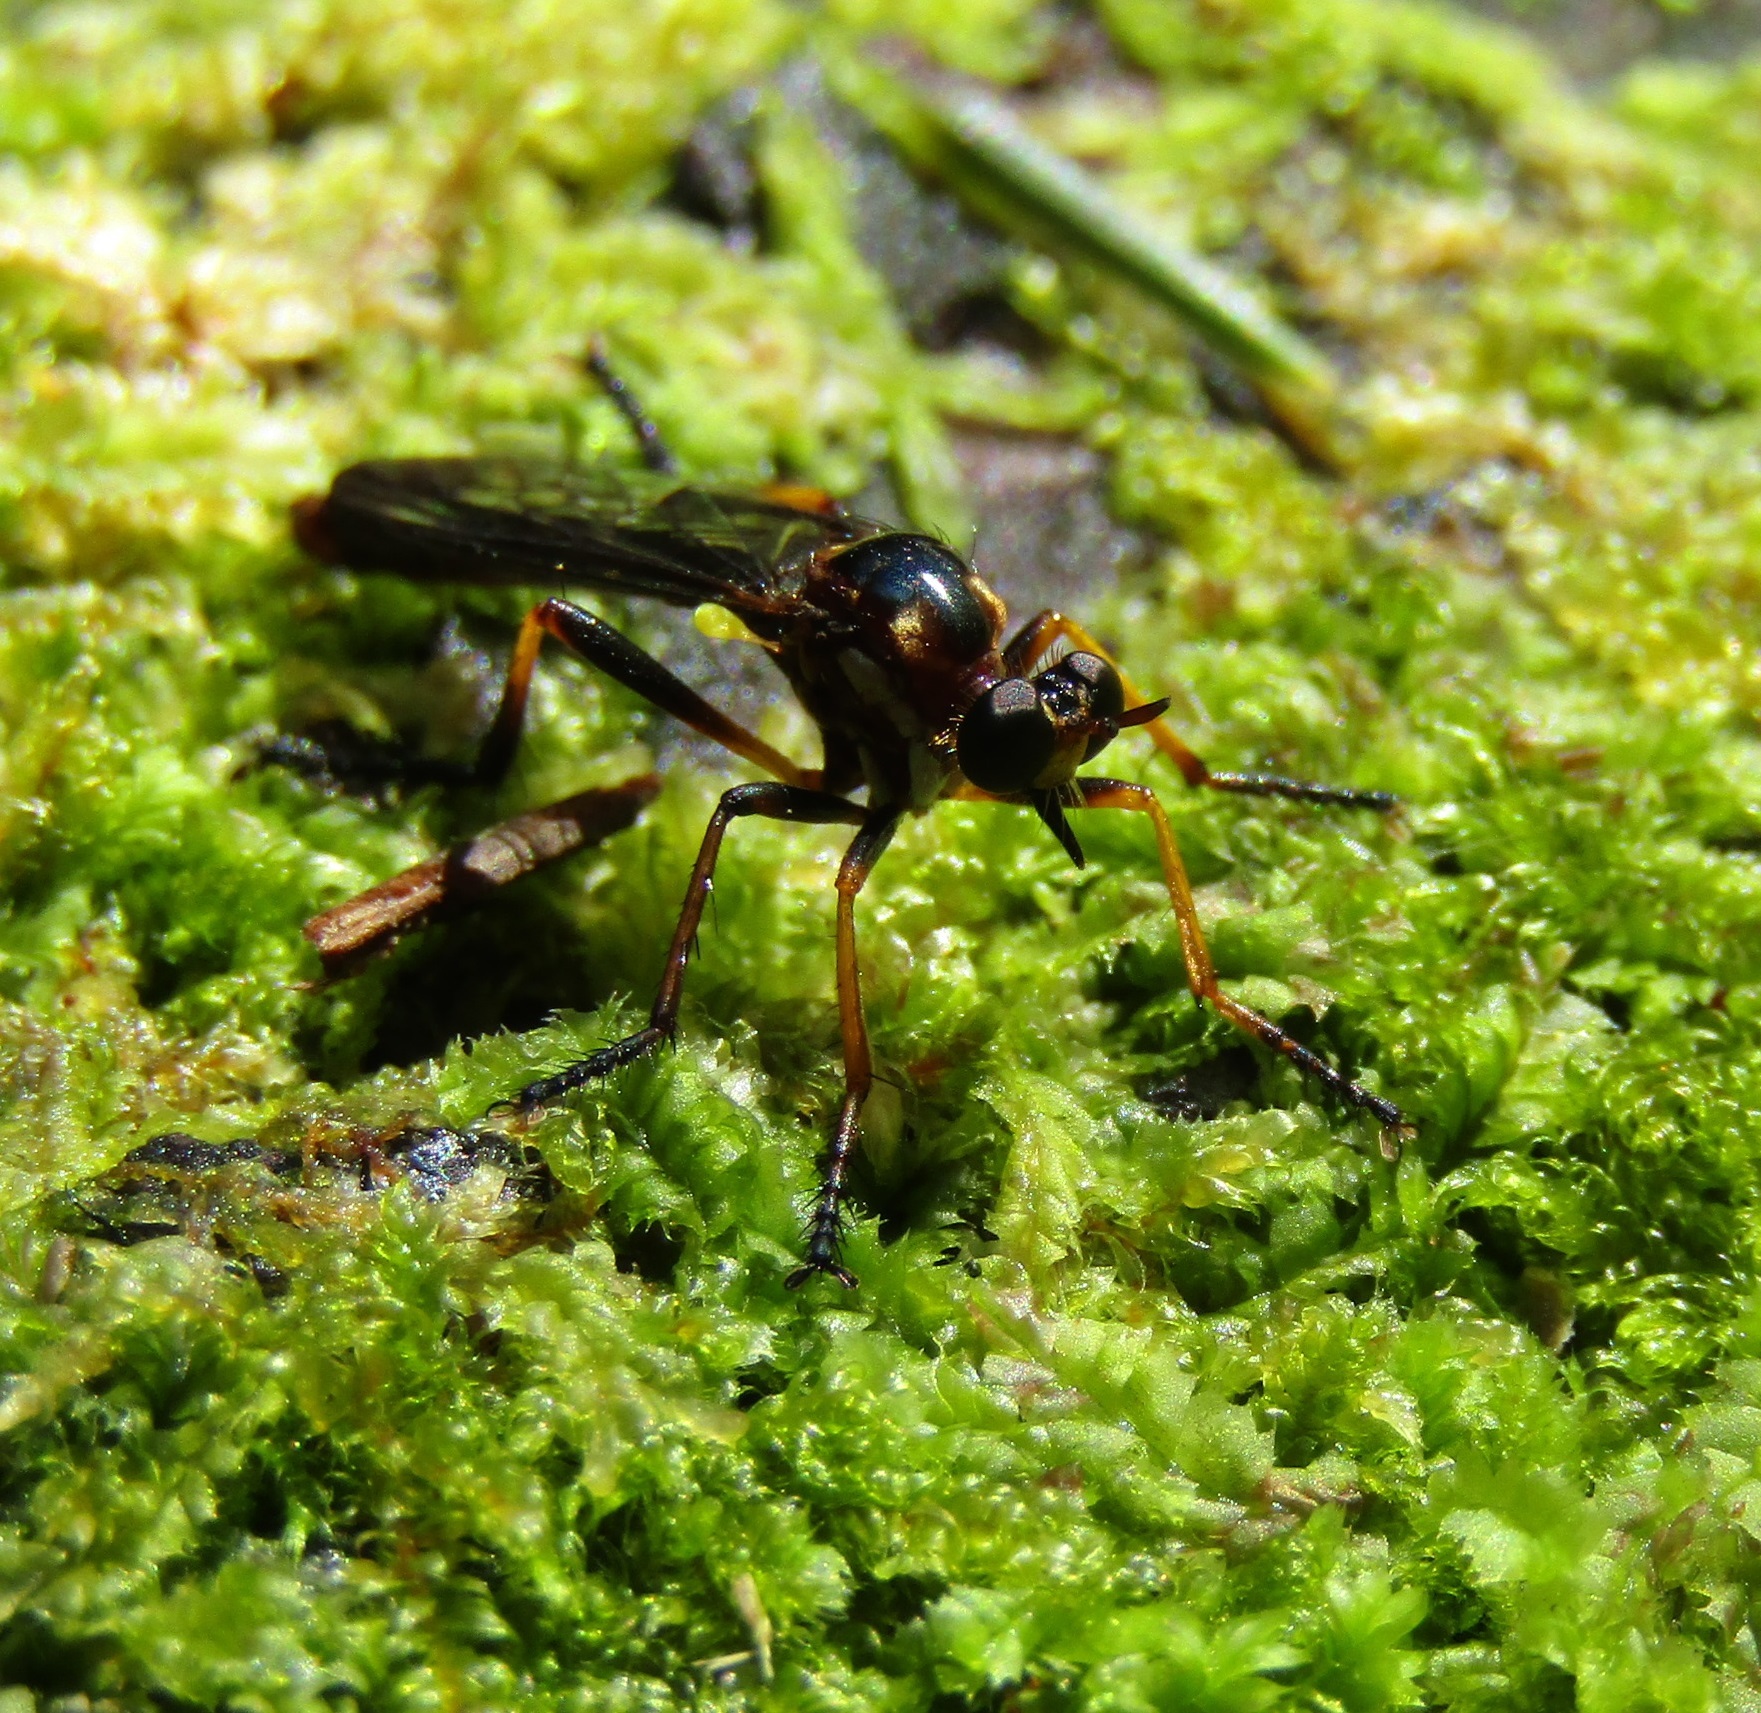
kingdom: Animalia
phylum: Arthropoda
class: Insecta
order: Diptera
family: Asilidae
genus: Saropogon
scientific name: Saropogon fascipes
